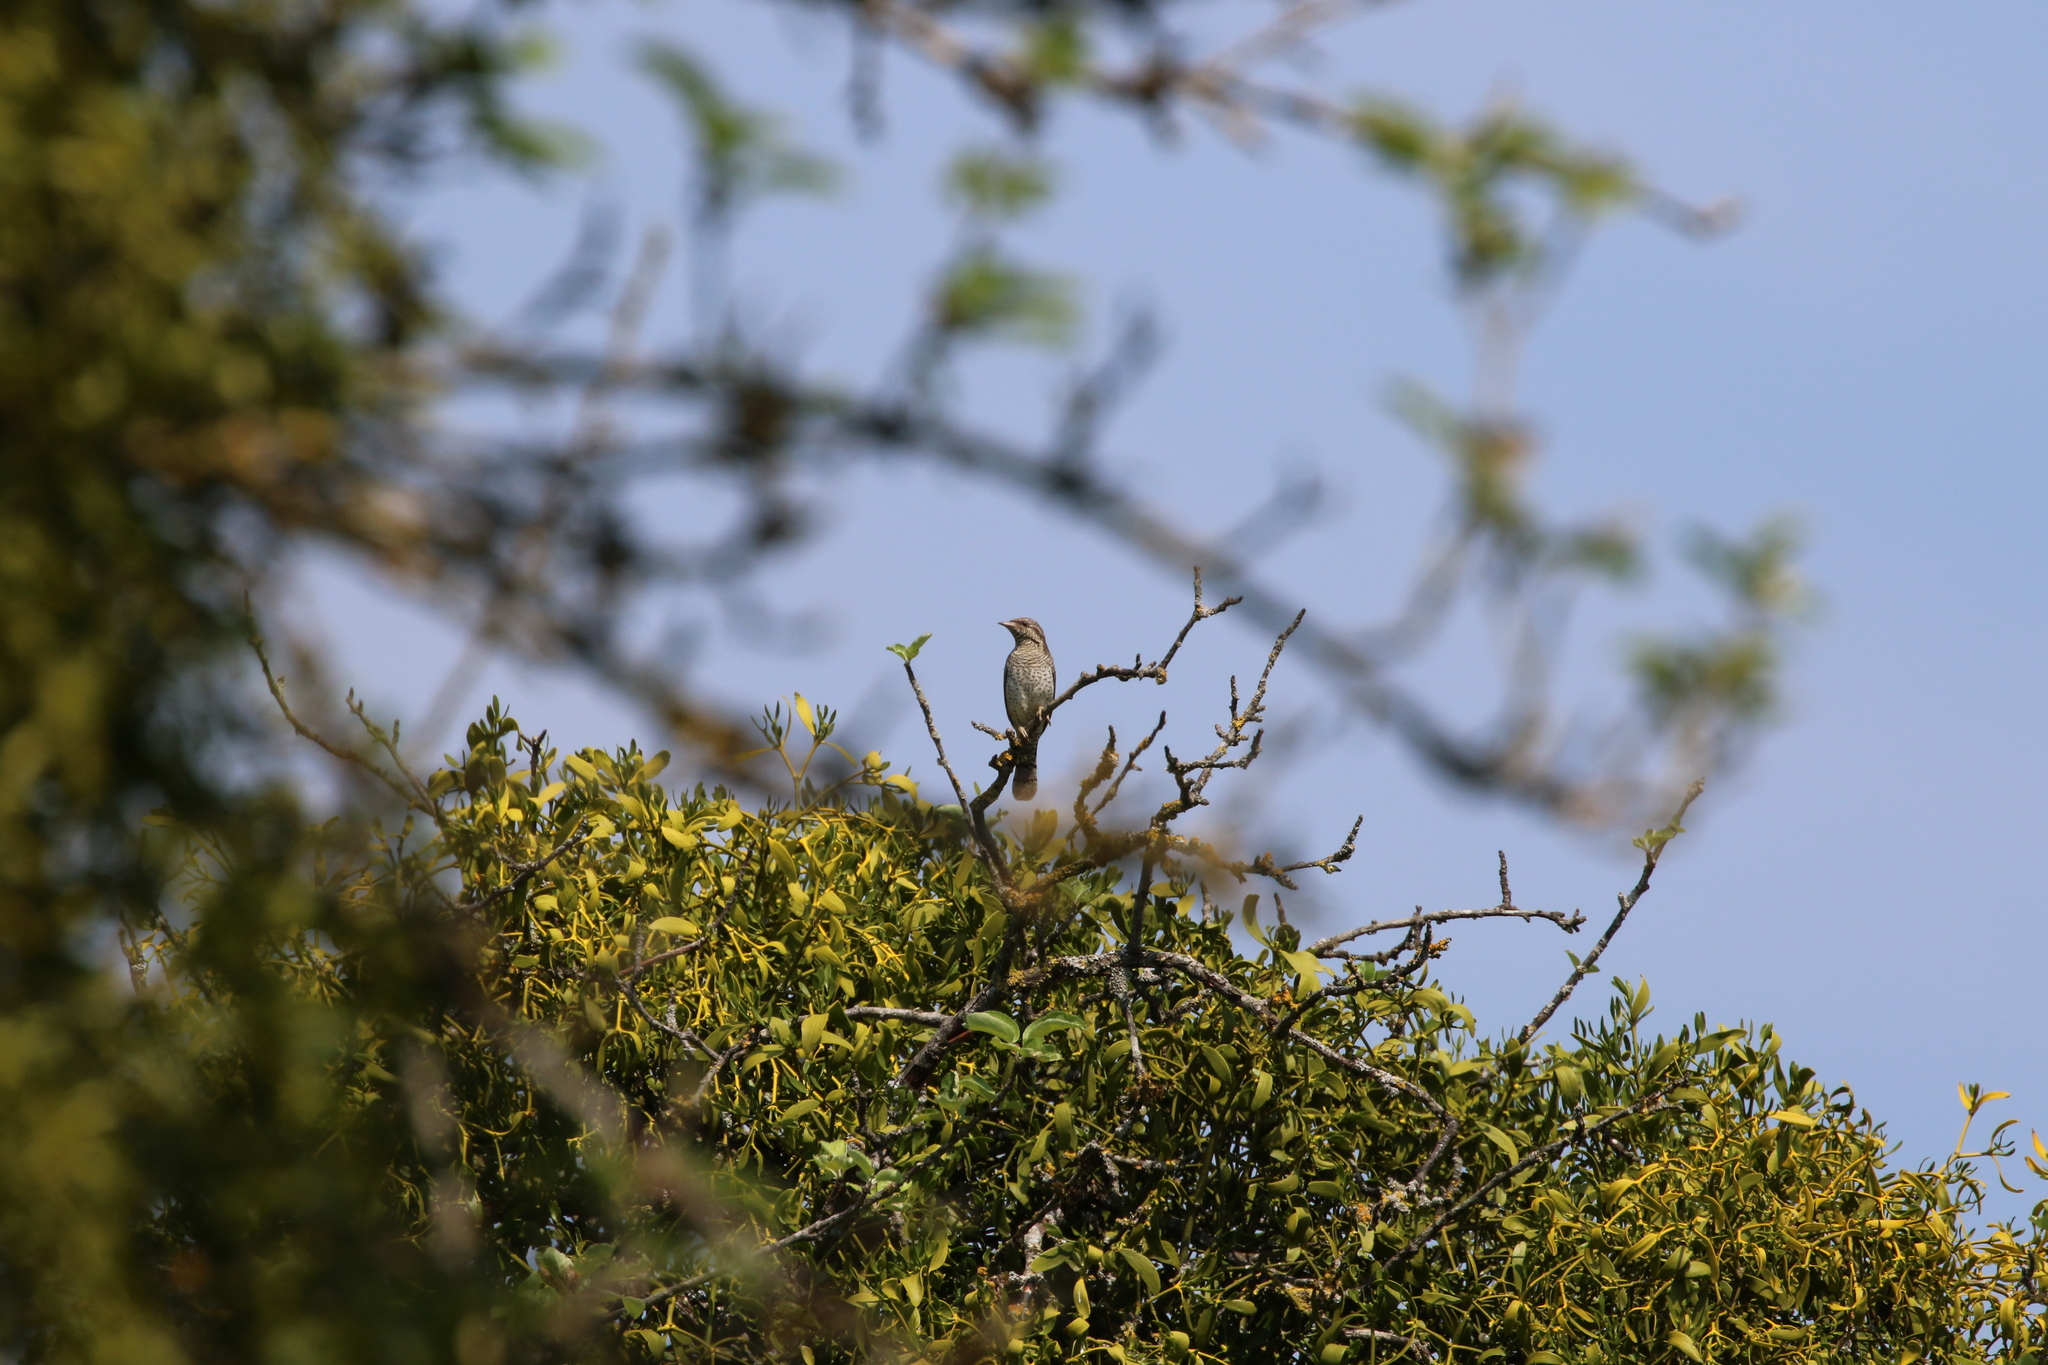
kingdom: Animalia
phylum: Chordata
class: Aves
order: Piciformes
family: Picidae
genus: Jynx
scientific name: Jynx torquilla
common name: Eurasian wryneck
